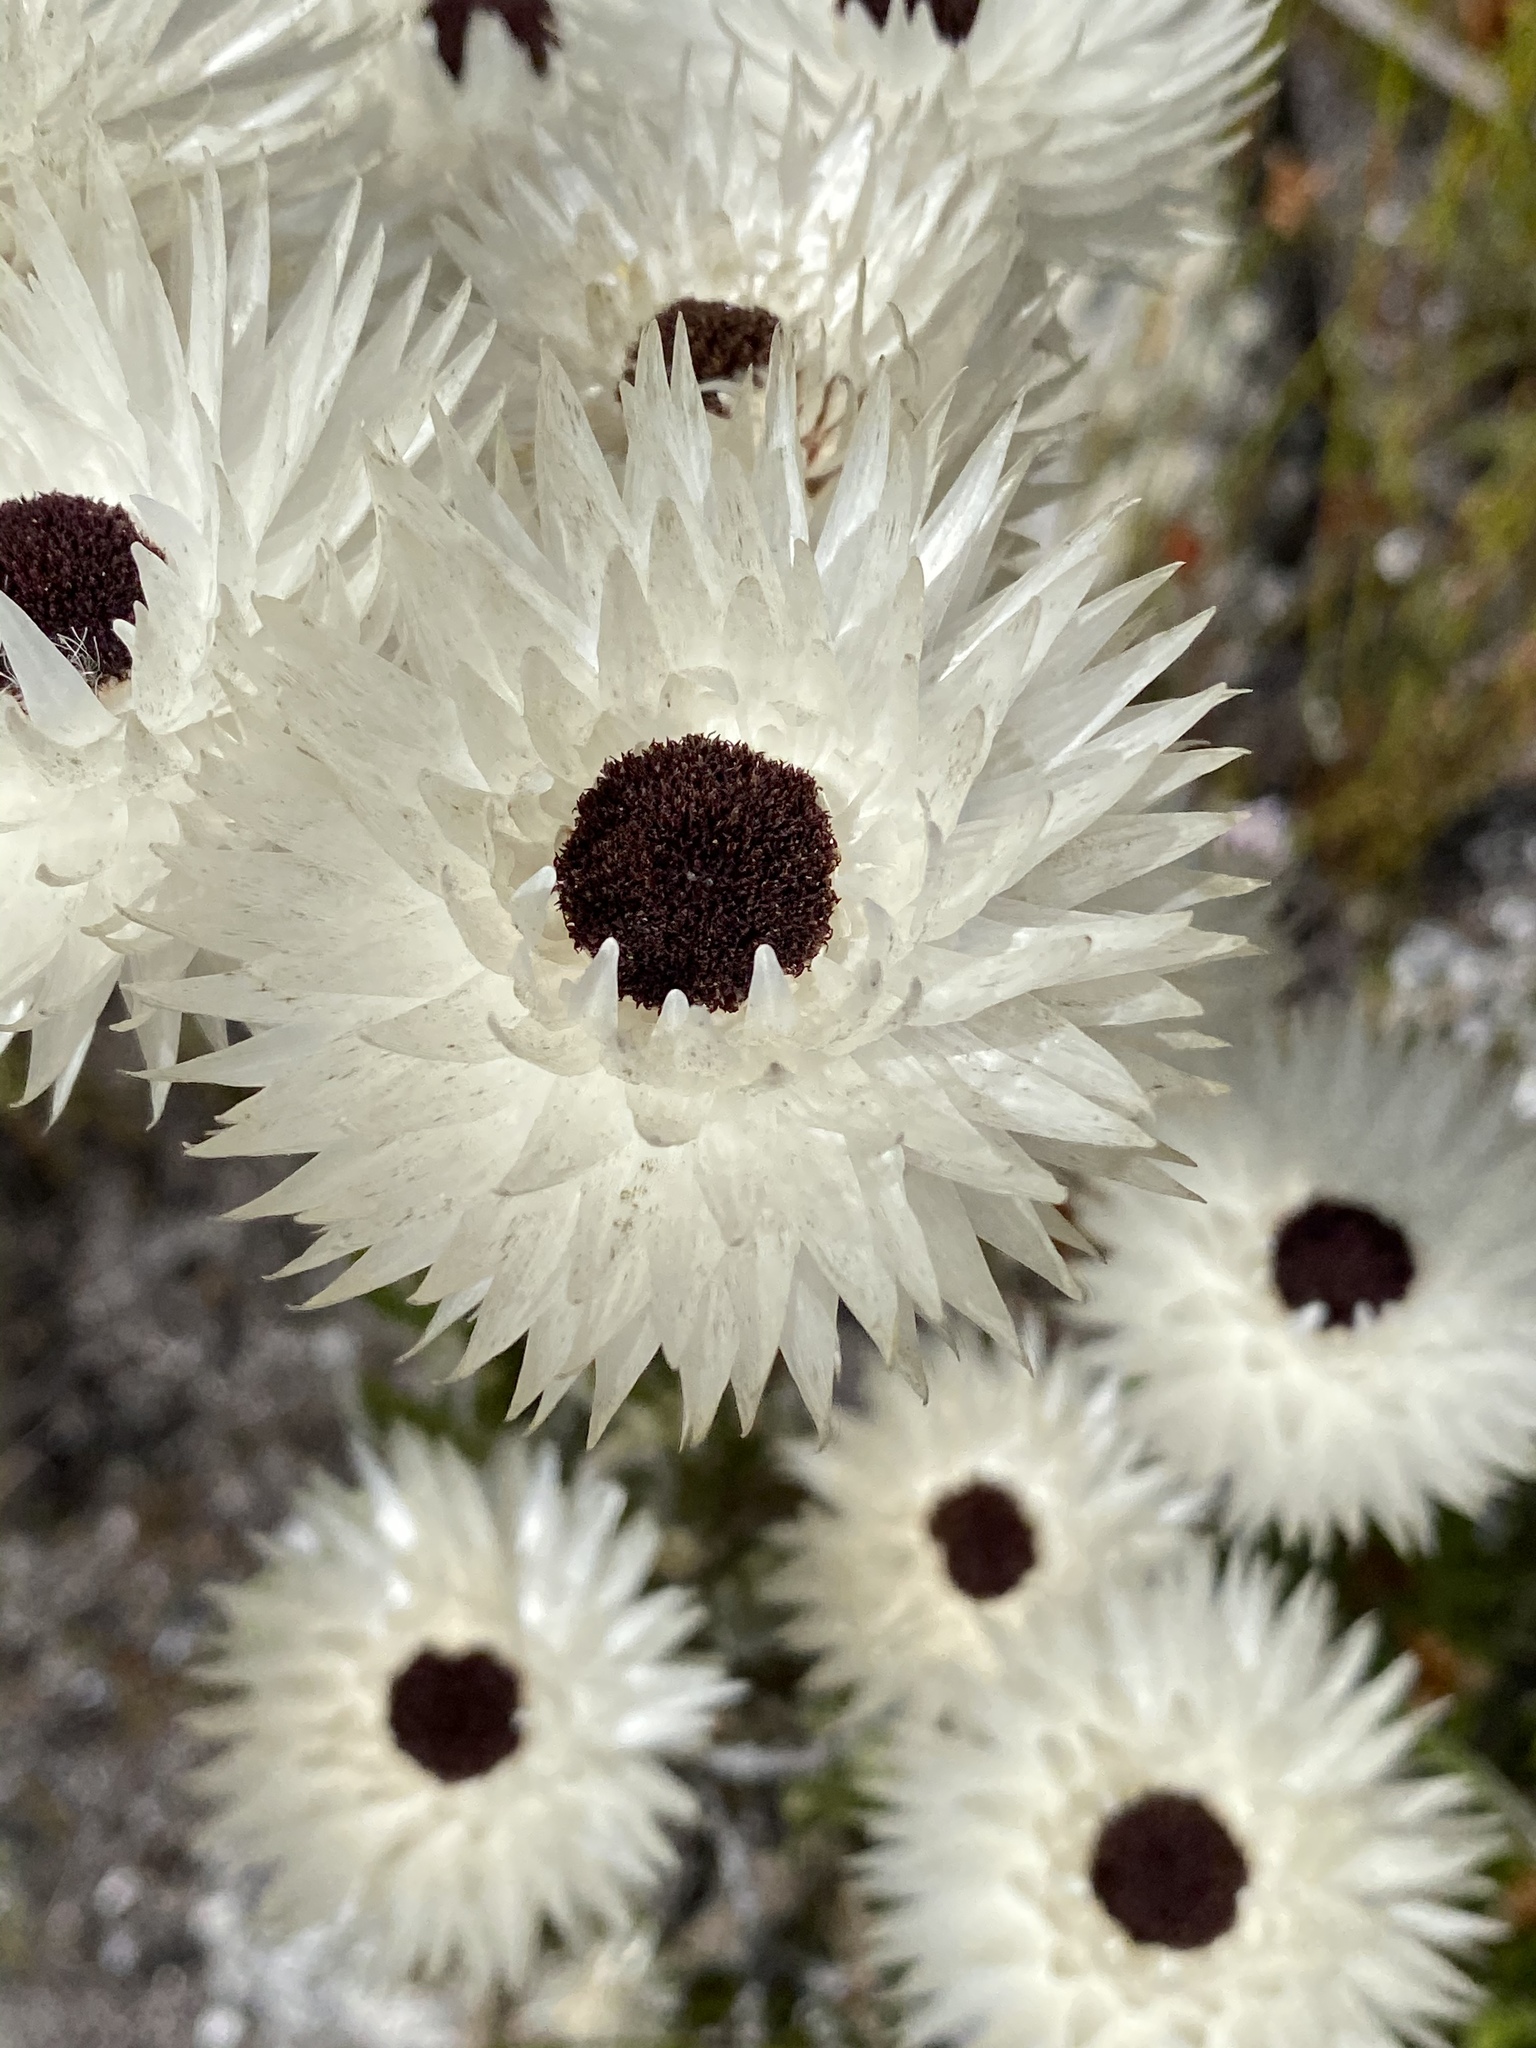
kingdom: Plantae
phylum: Tracheophyta
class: Magnoliopsida
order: Asterales
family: Asteraceae
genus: Syncarpha
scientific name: Syncarpha zeyheri
